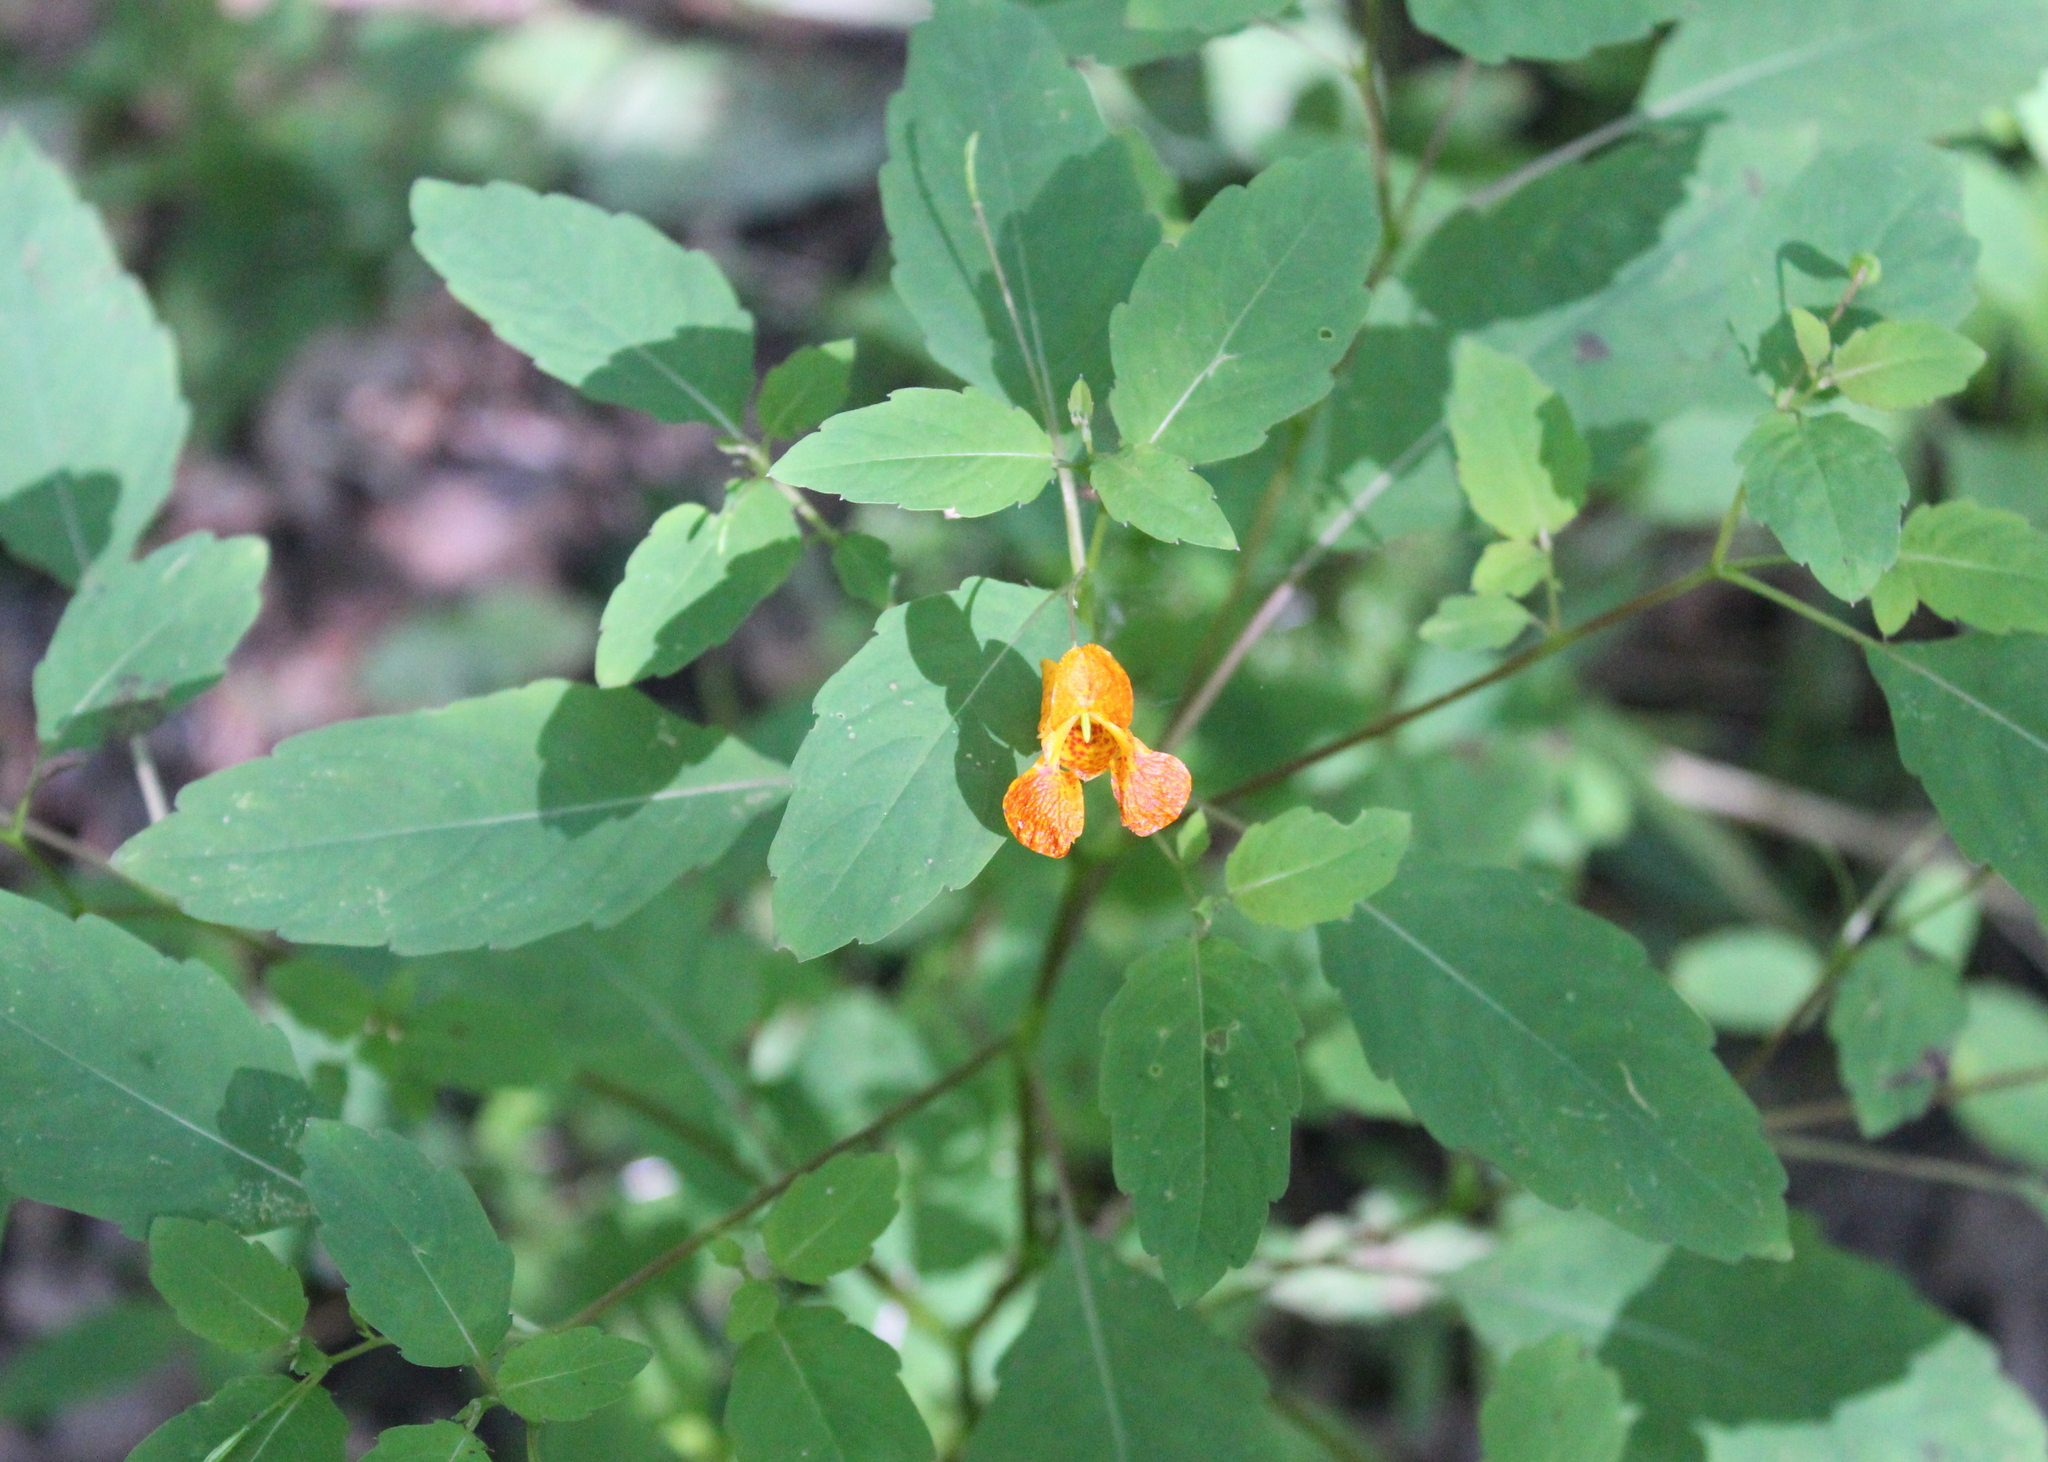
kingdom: Plantae
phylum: Tracheophyta
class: Magnoliopsida
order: Ericales
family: Balsaminaceae
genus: Impatiens
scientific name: Impatiens capensis
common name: Orange balsam
